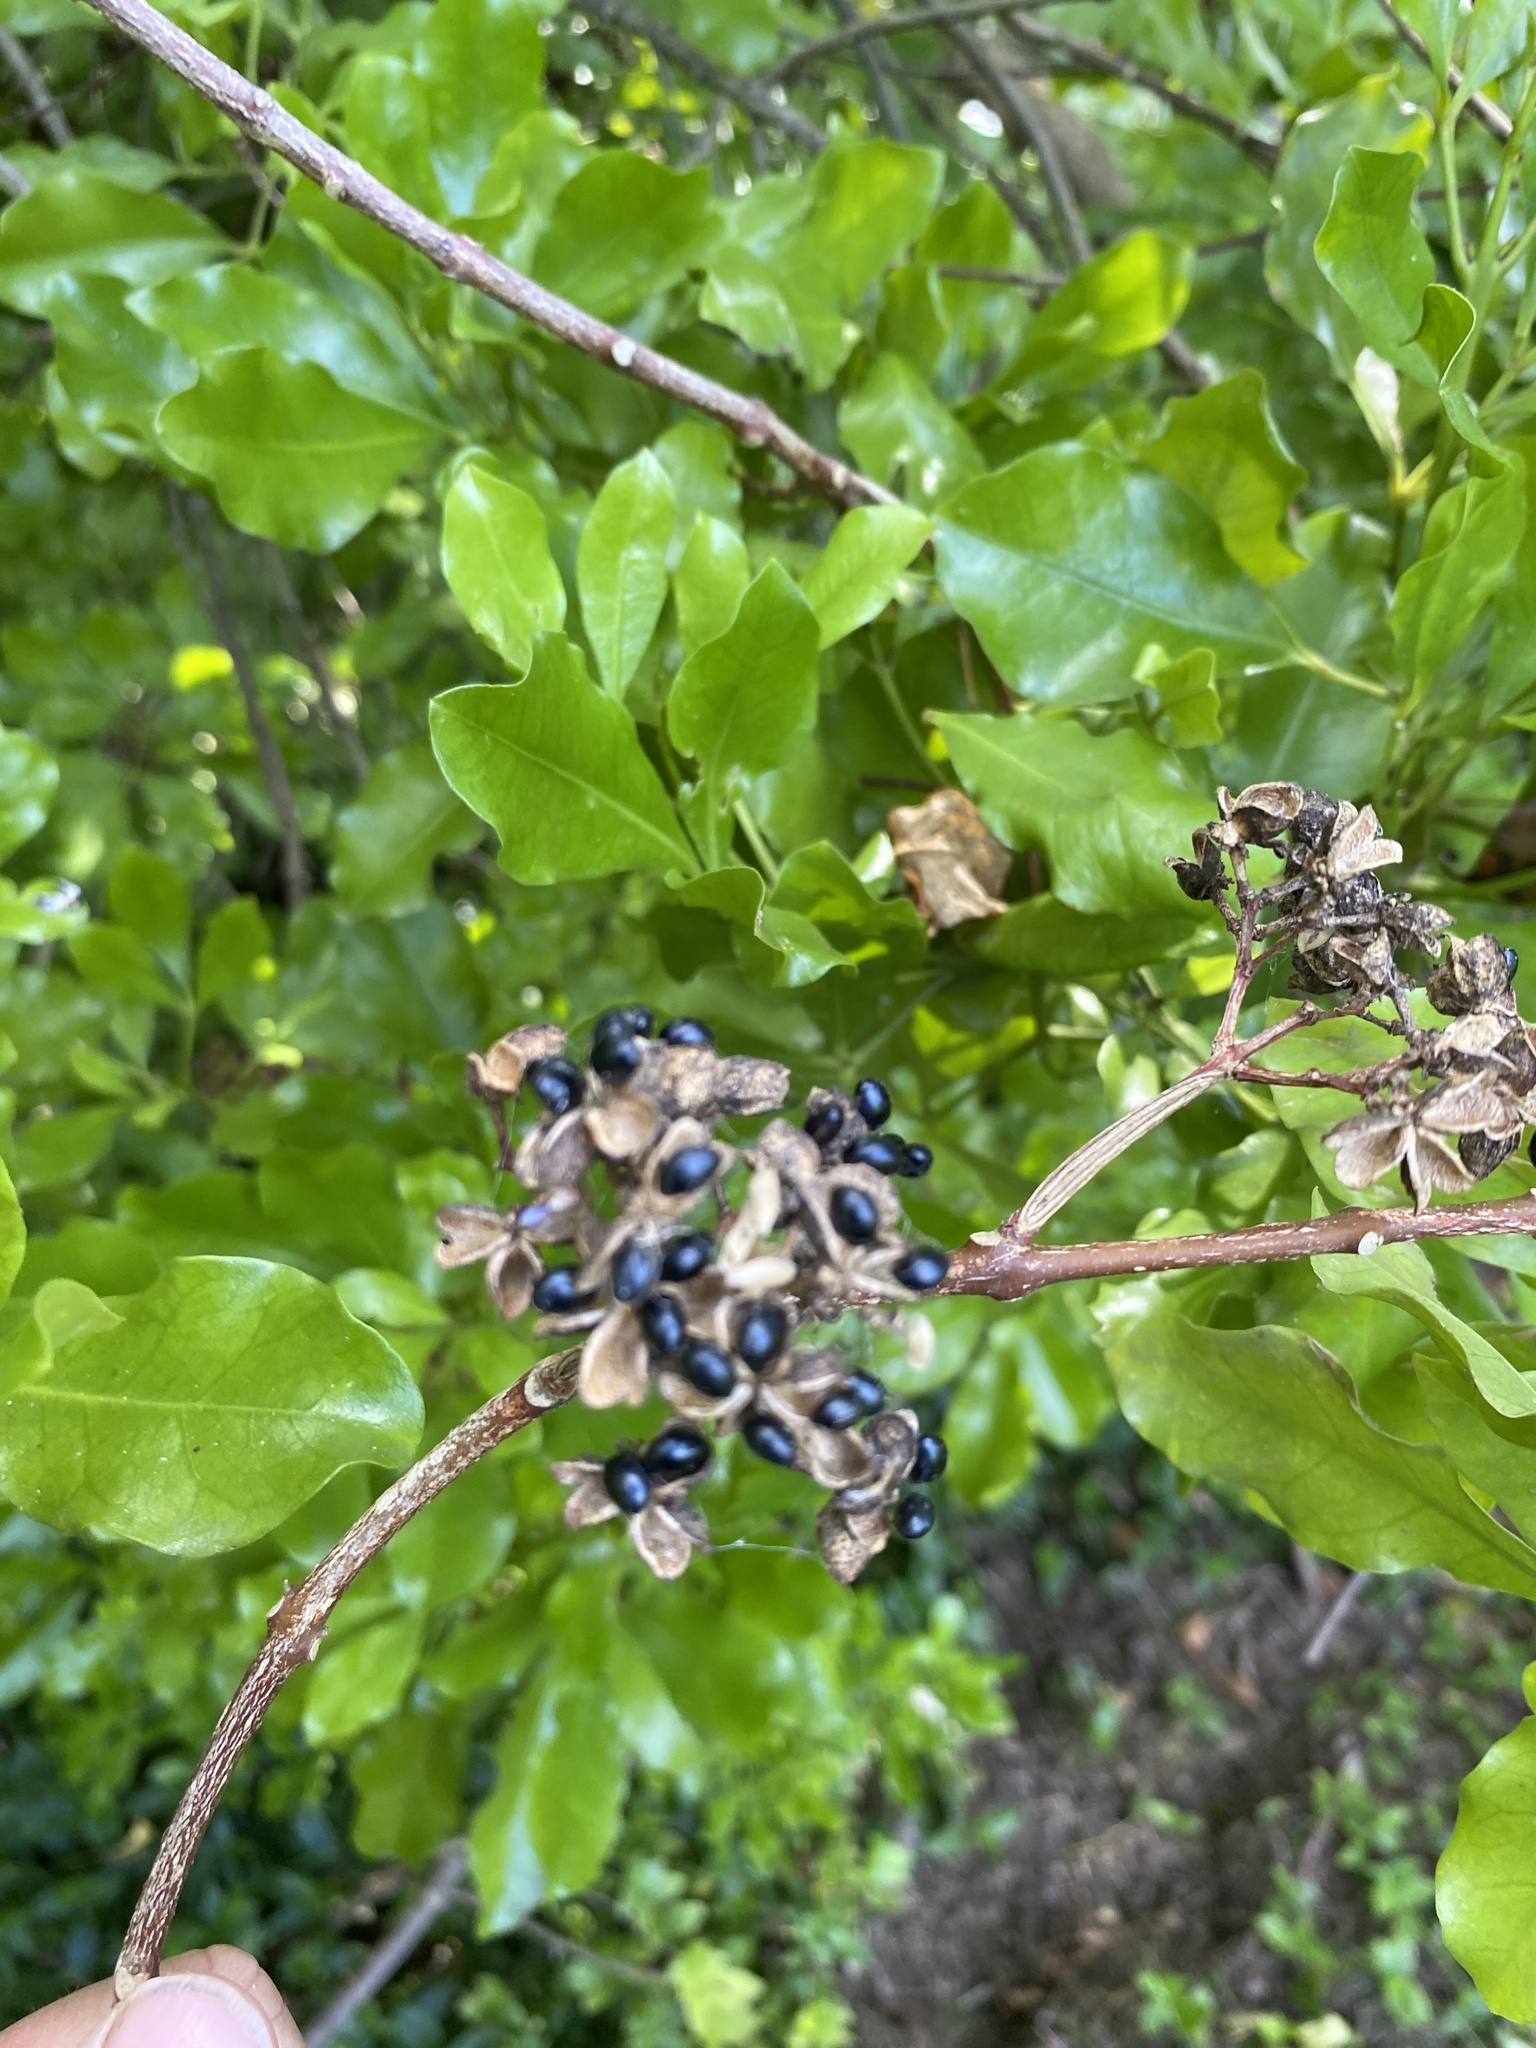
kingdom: Plantae
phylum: Tracheophyta
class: Magnoliopsida
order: Sapindales
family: Rutaceae
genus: Melicope
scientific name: Melicope ternata
